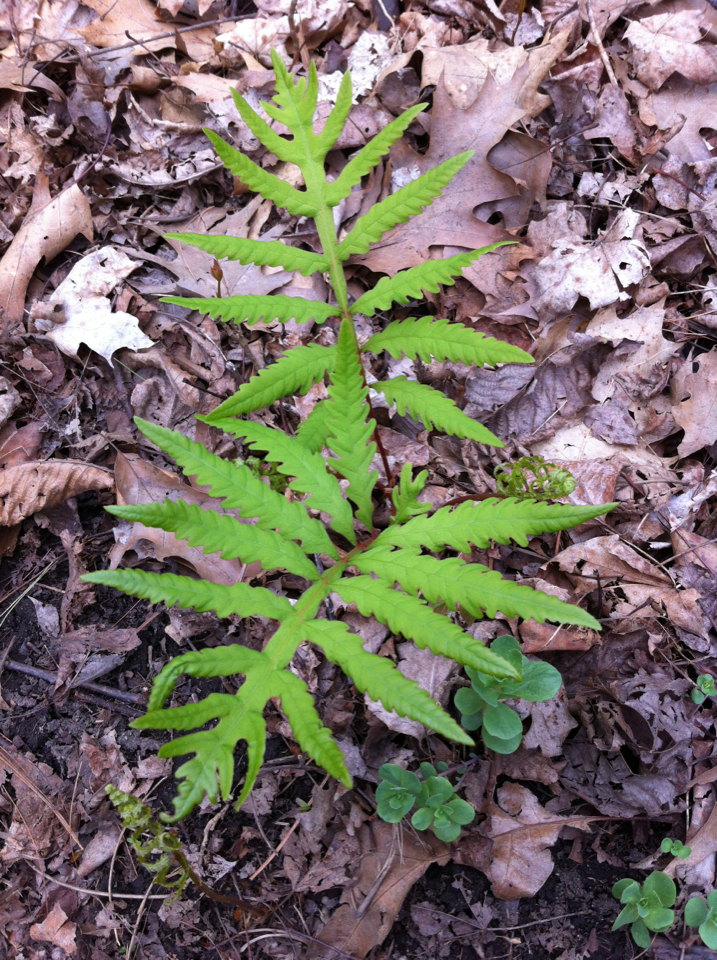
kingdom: Plantae
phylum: Tracheophyta
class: Polypodiopsida
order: Polypodiales
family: Onocleaceae
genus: Onoclea
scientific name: Onoclea sensibilis
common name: Sensitive fern
